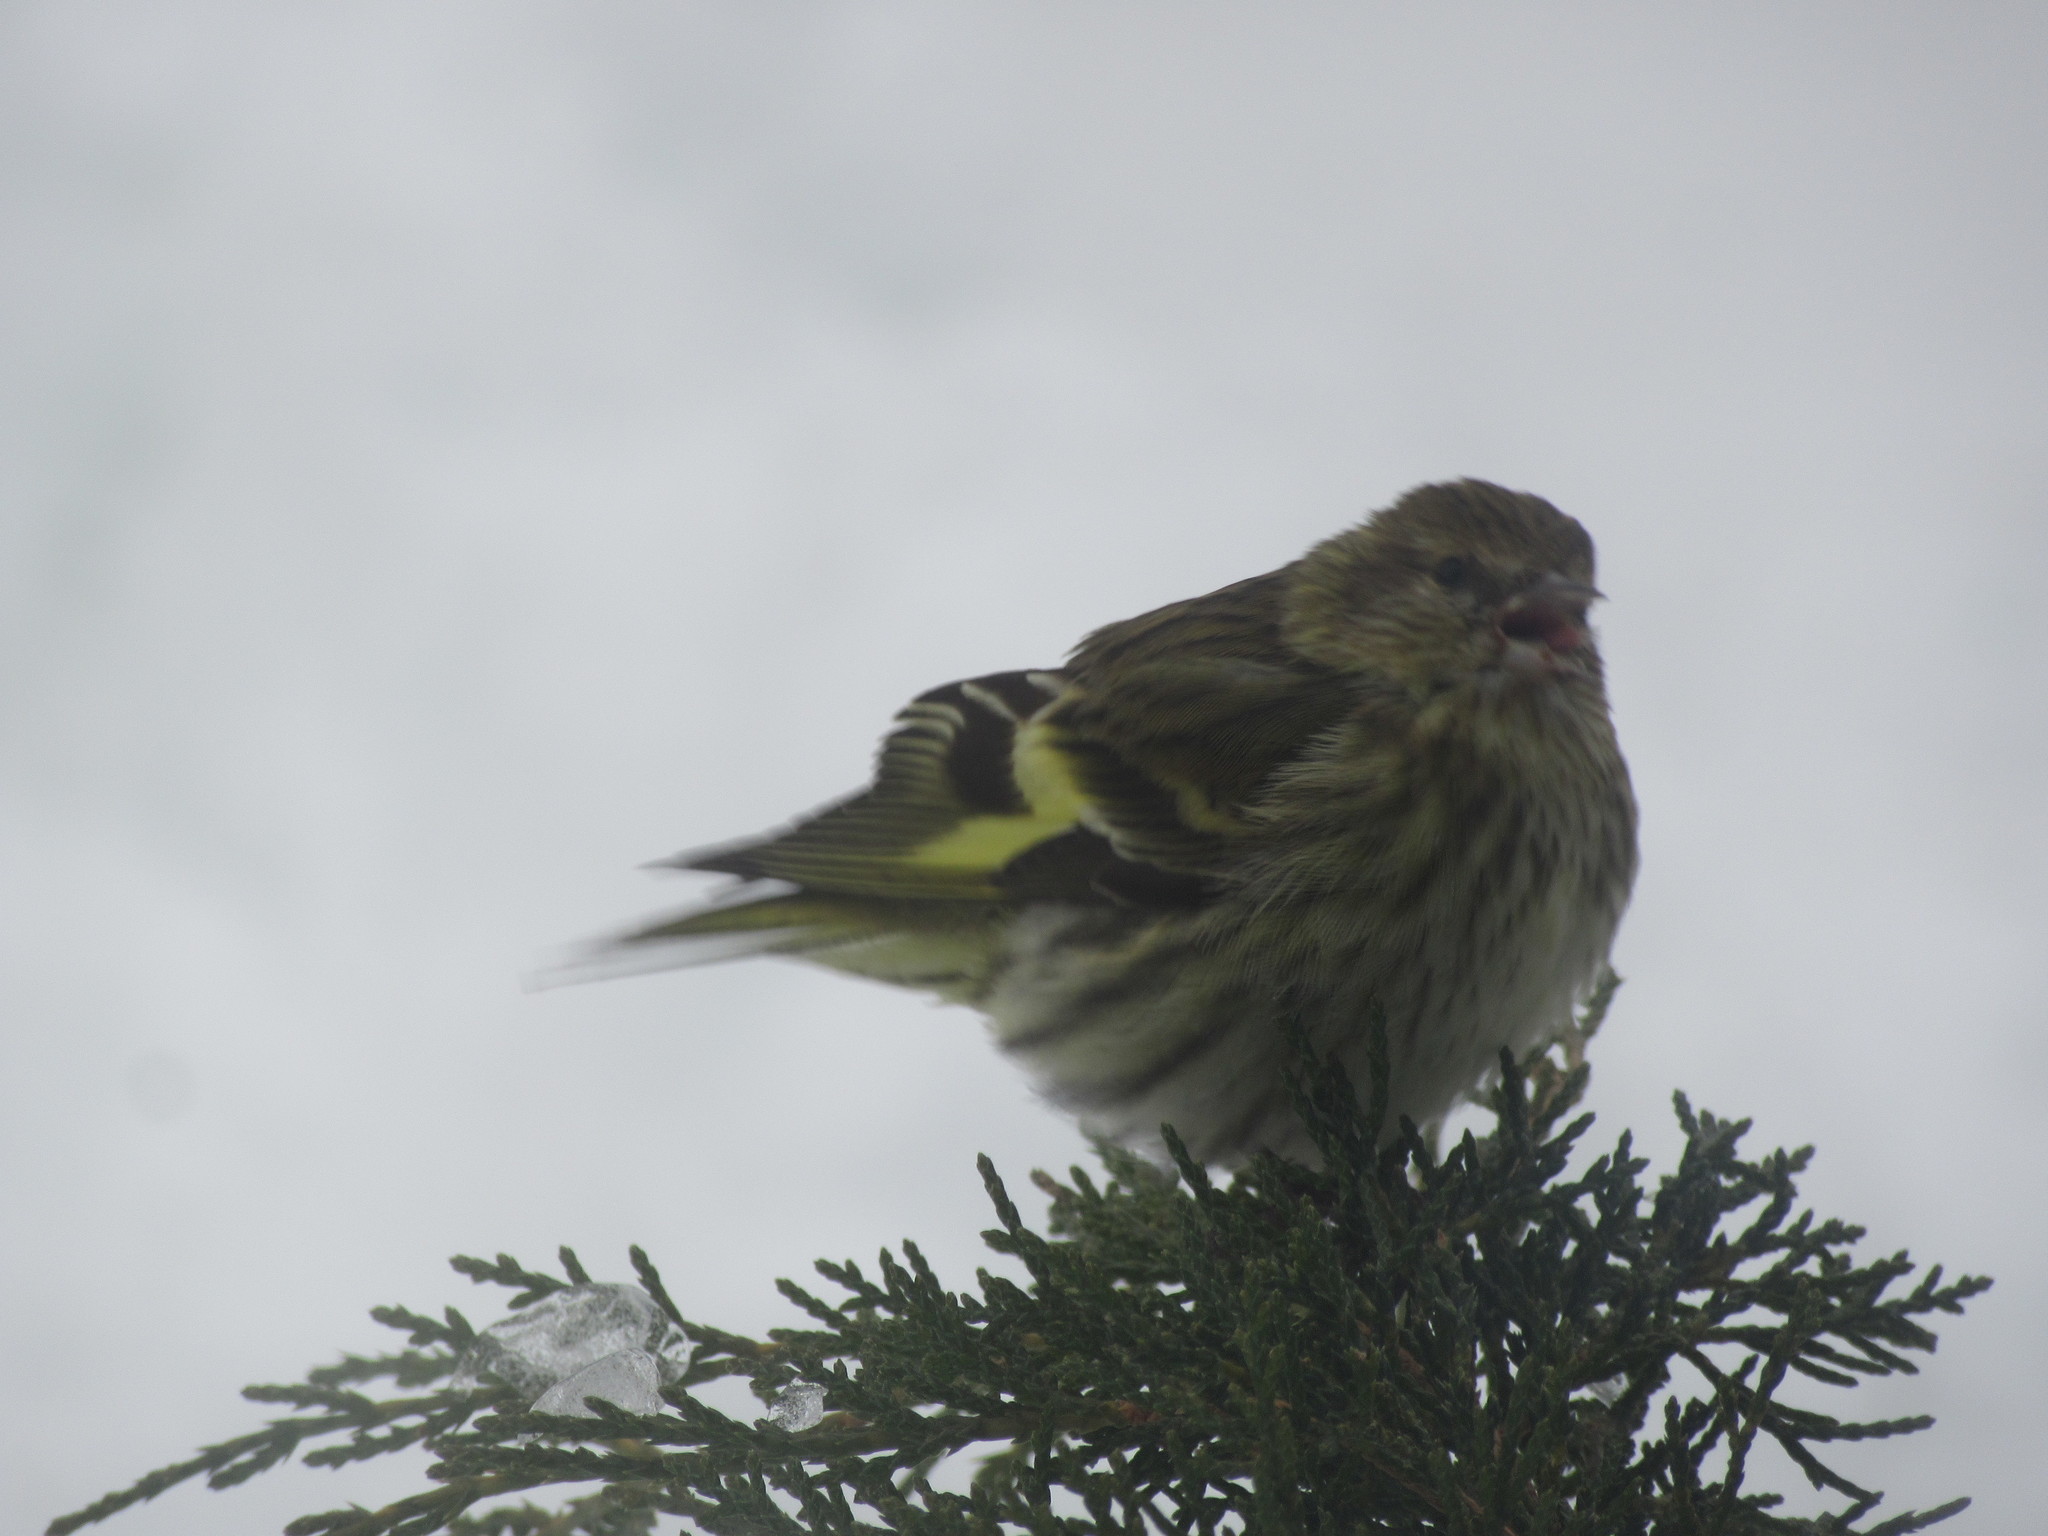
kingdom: Animalia
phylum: Chordata
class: Aves
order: Passeriformes
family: Fringillidae
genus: Spinus
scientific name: Spinus pinus
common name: Pine siskin
